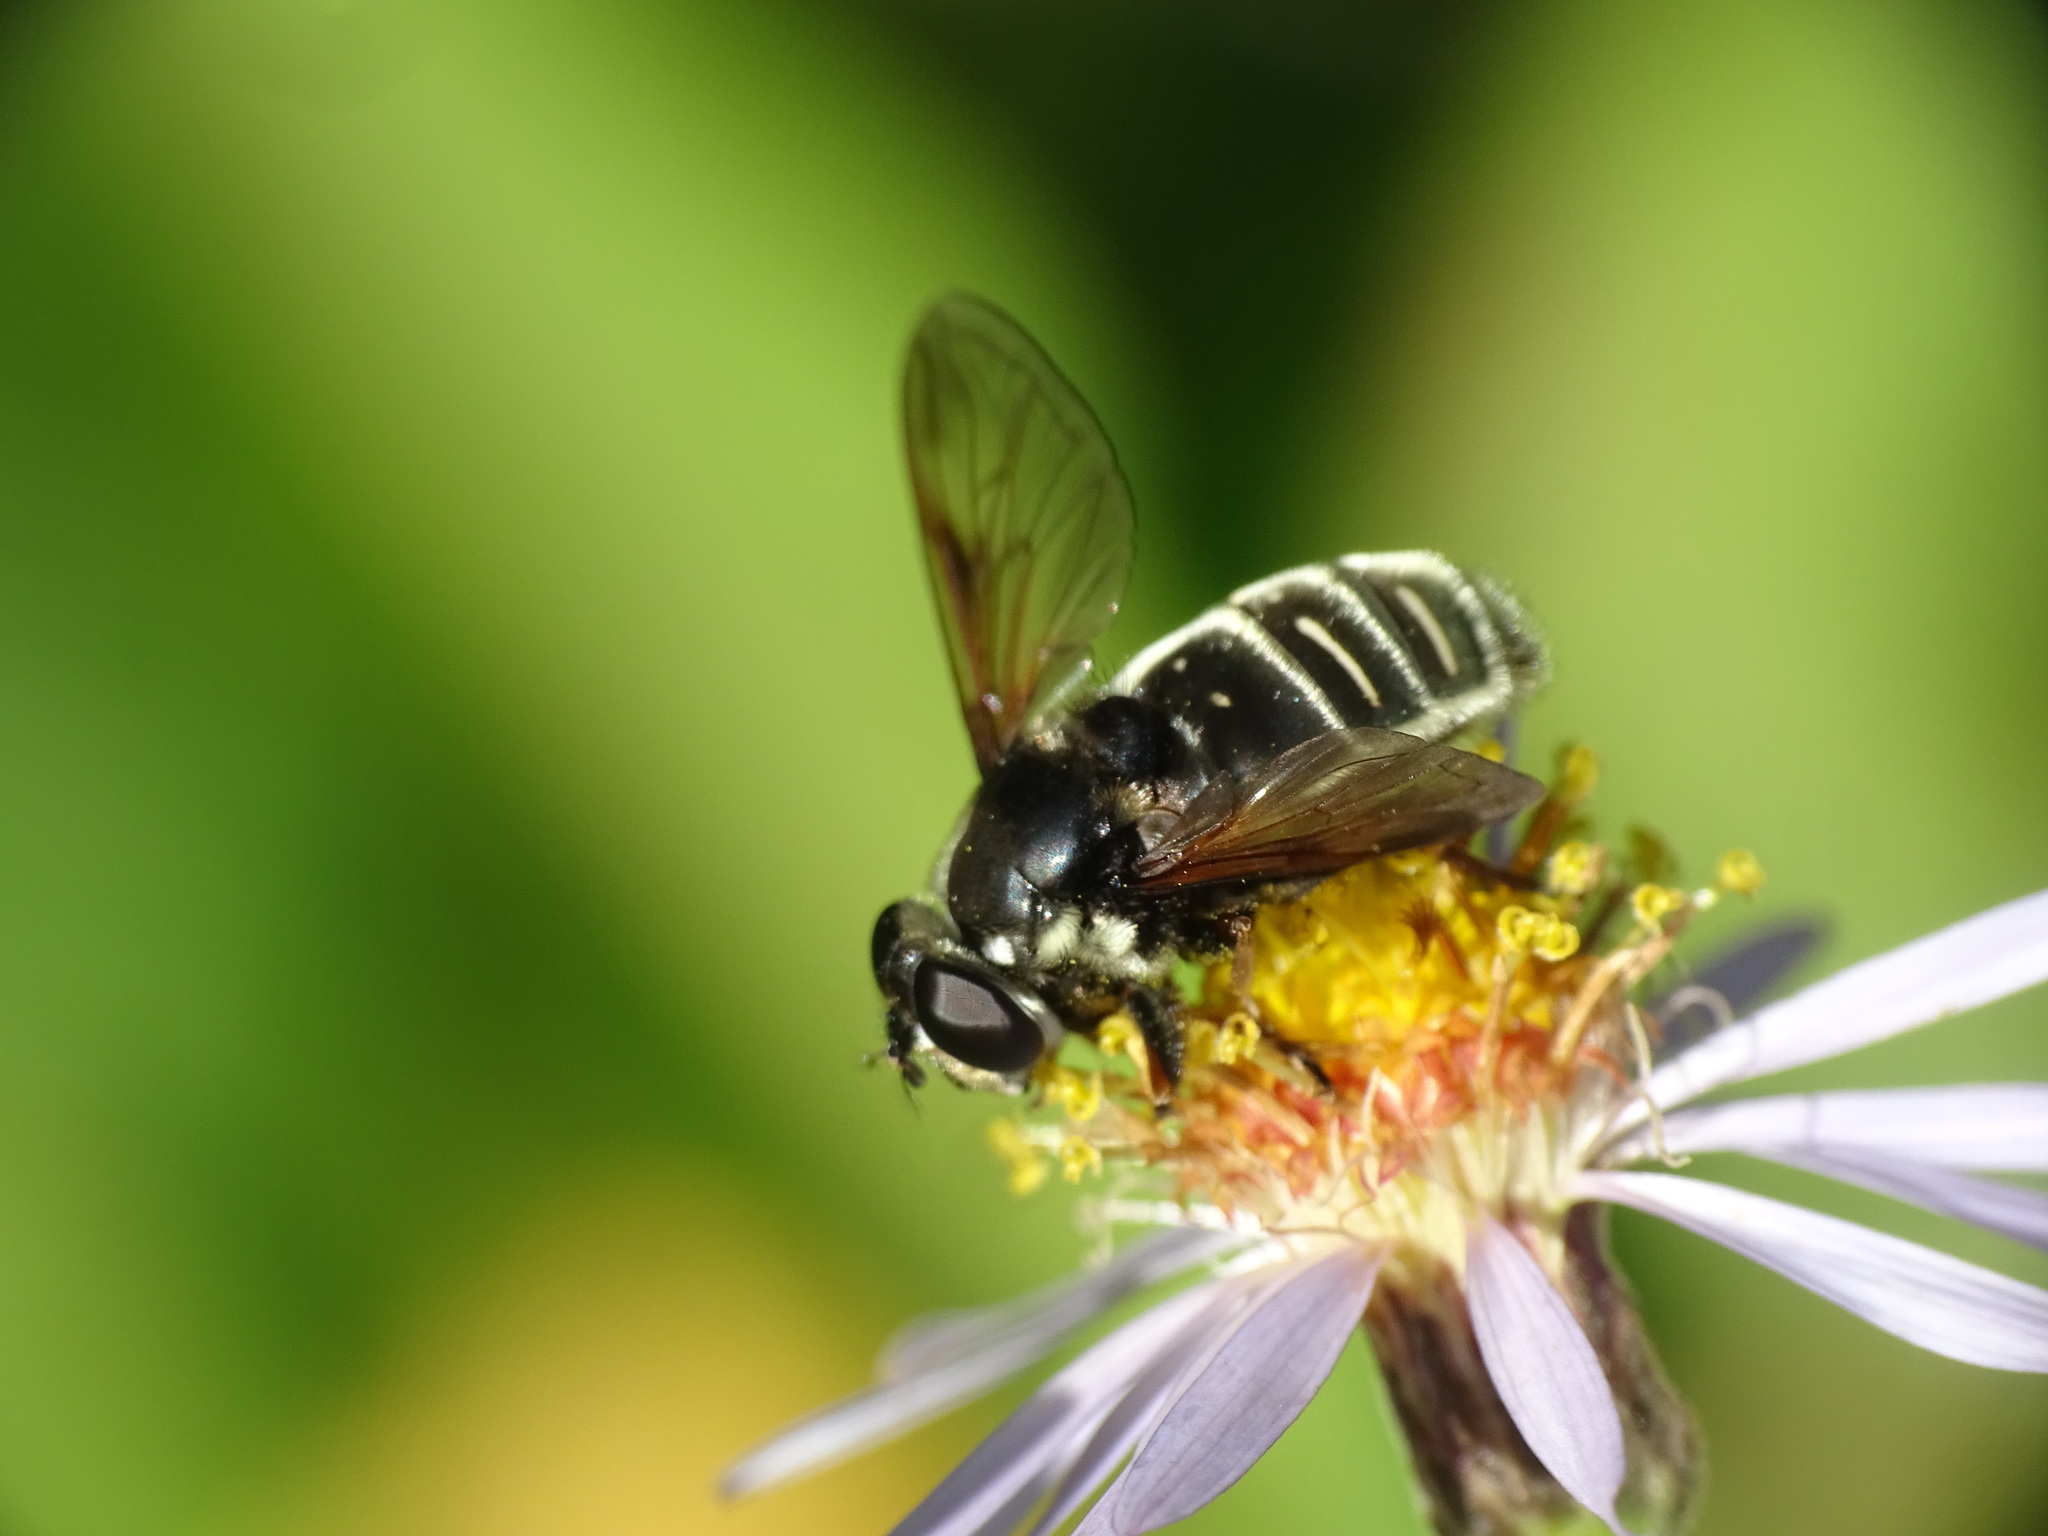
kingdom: Animalia
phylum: Arthropoda
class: Insecta
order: Diptera
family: Syrphidae
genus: Sericomyia
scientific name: Sericomyia militaris
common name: Narrow-banded pond fly
